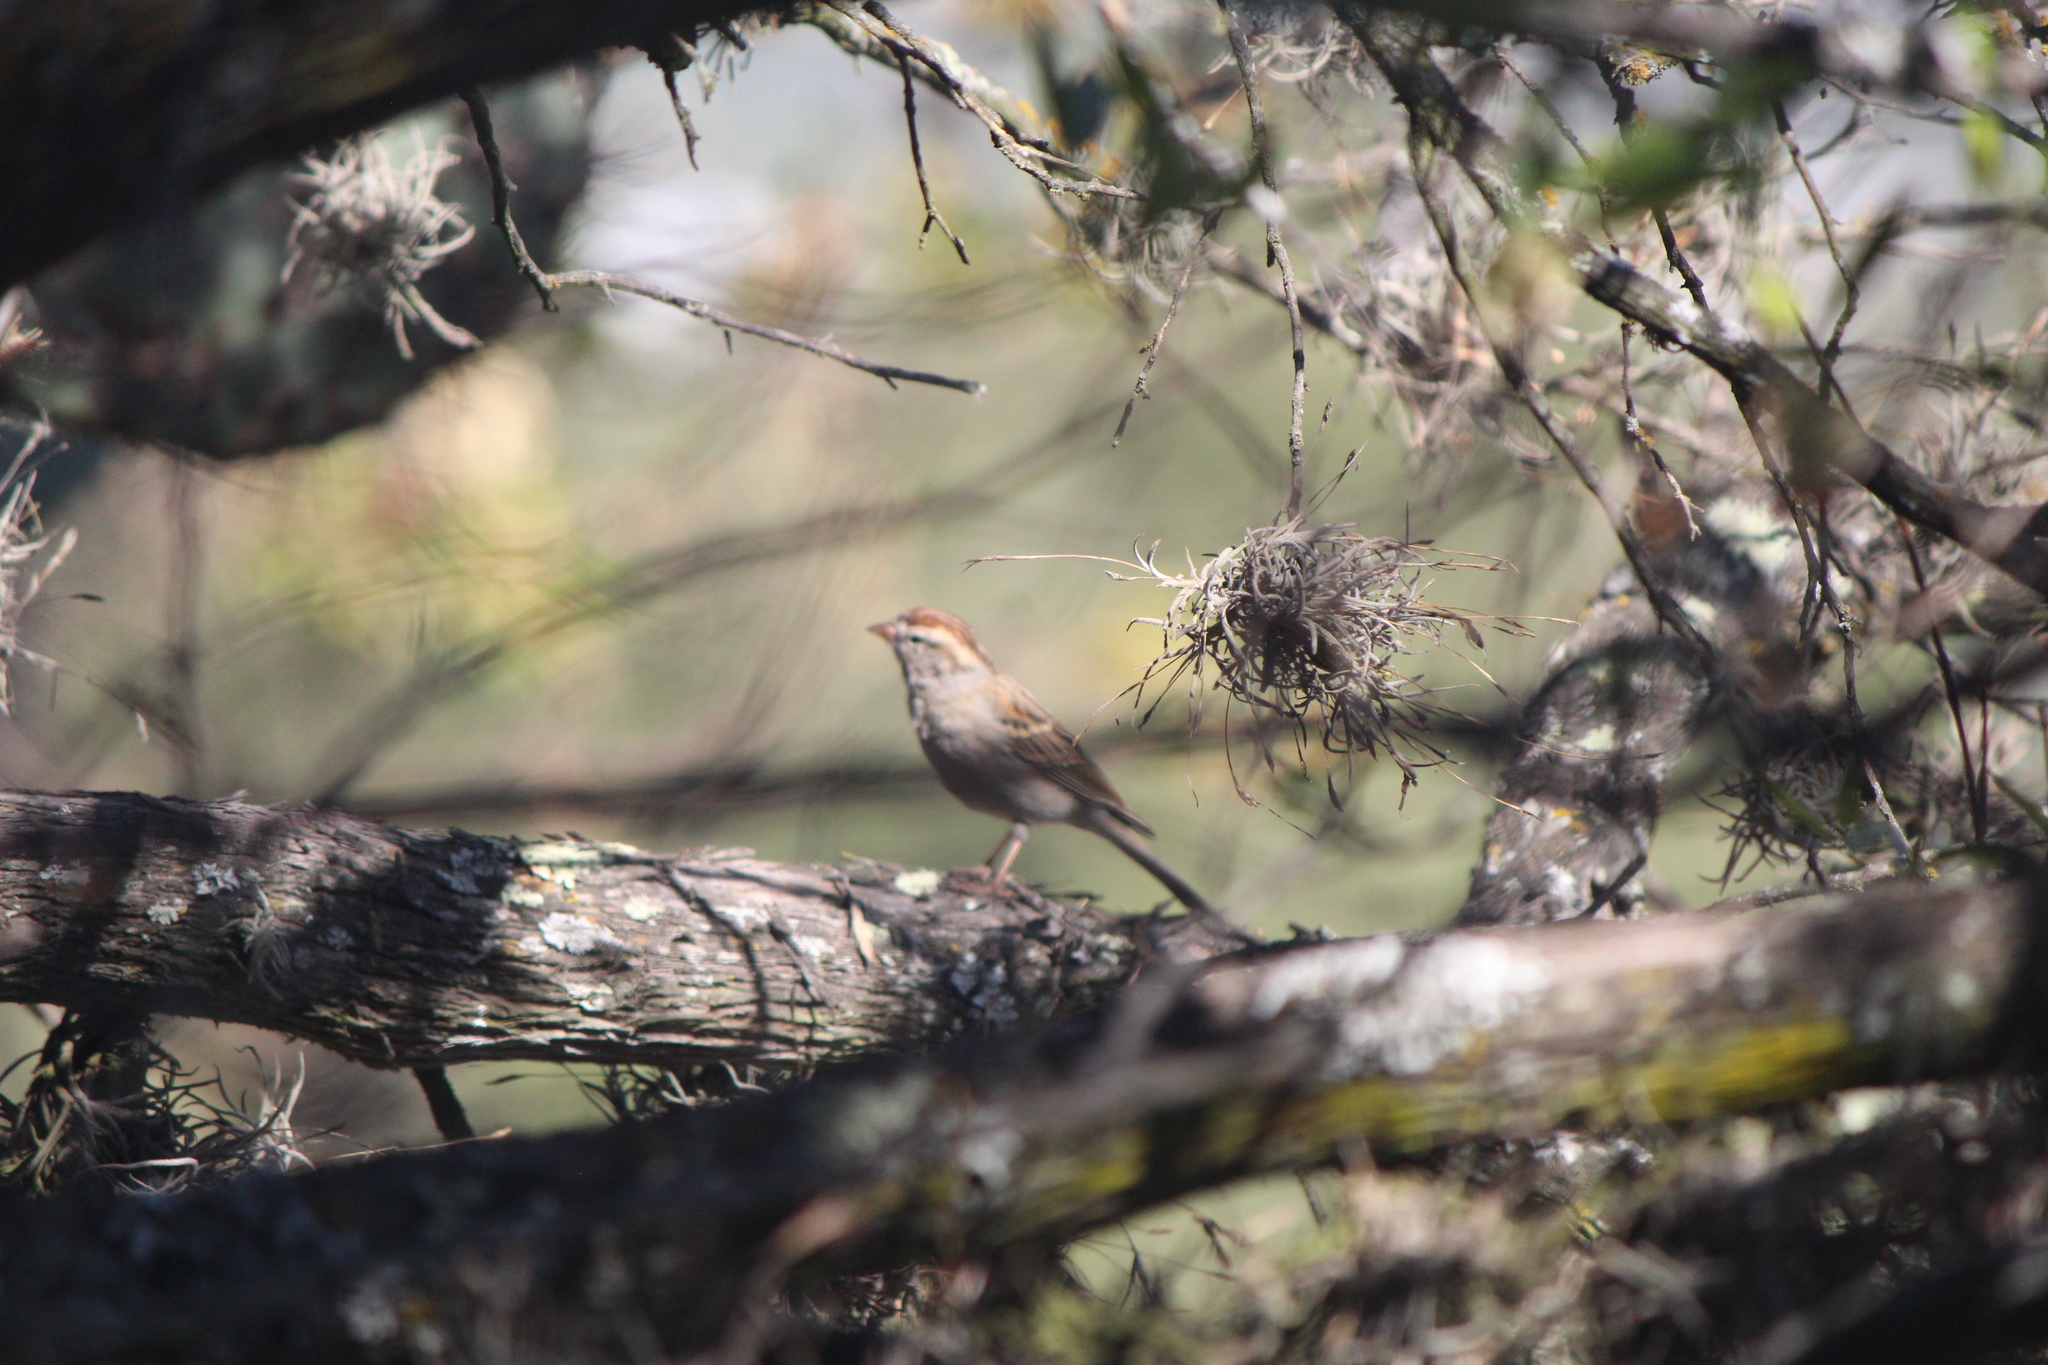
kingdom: Animalia
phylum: Chordata
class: Aves
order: Passeriformes
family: Passerellidae
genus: Spizella
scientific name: Spizella passerina
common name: Chipping sparrow
